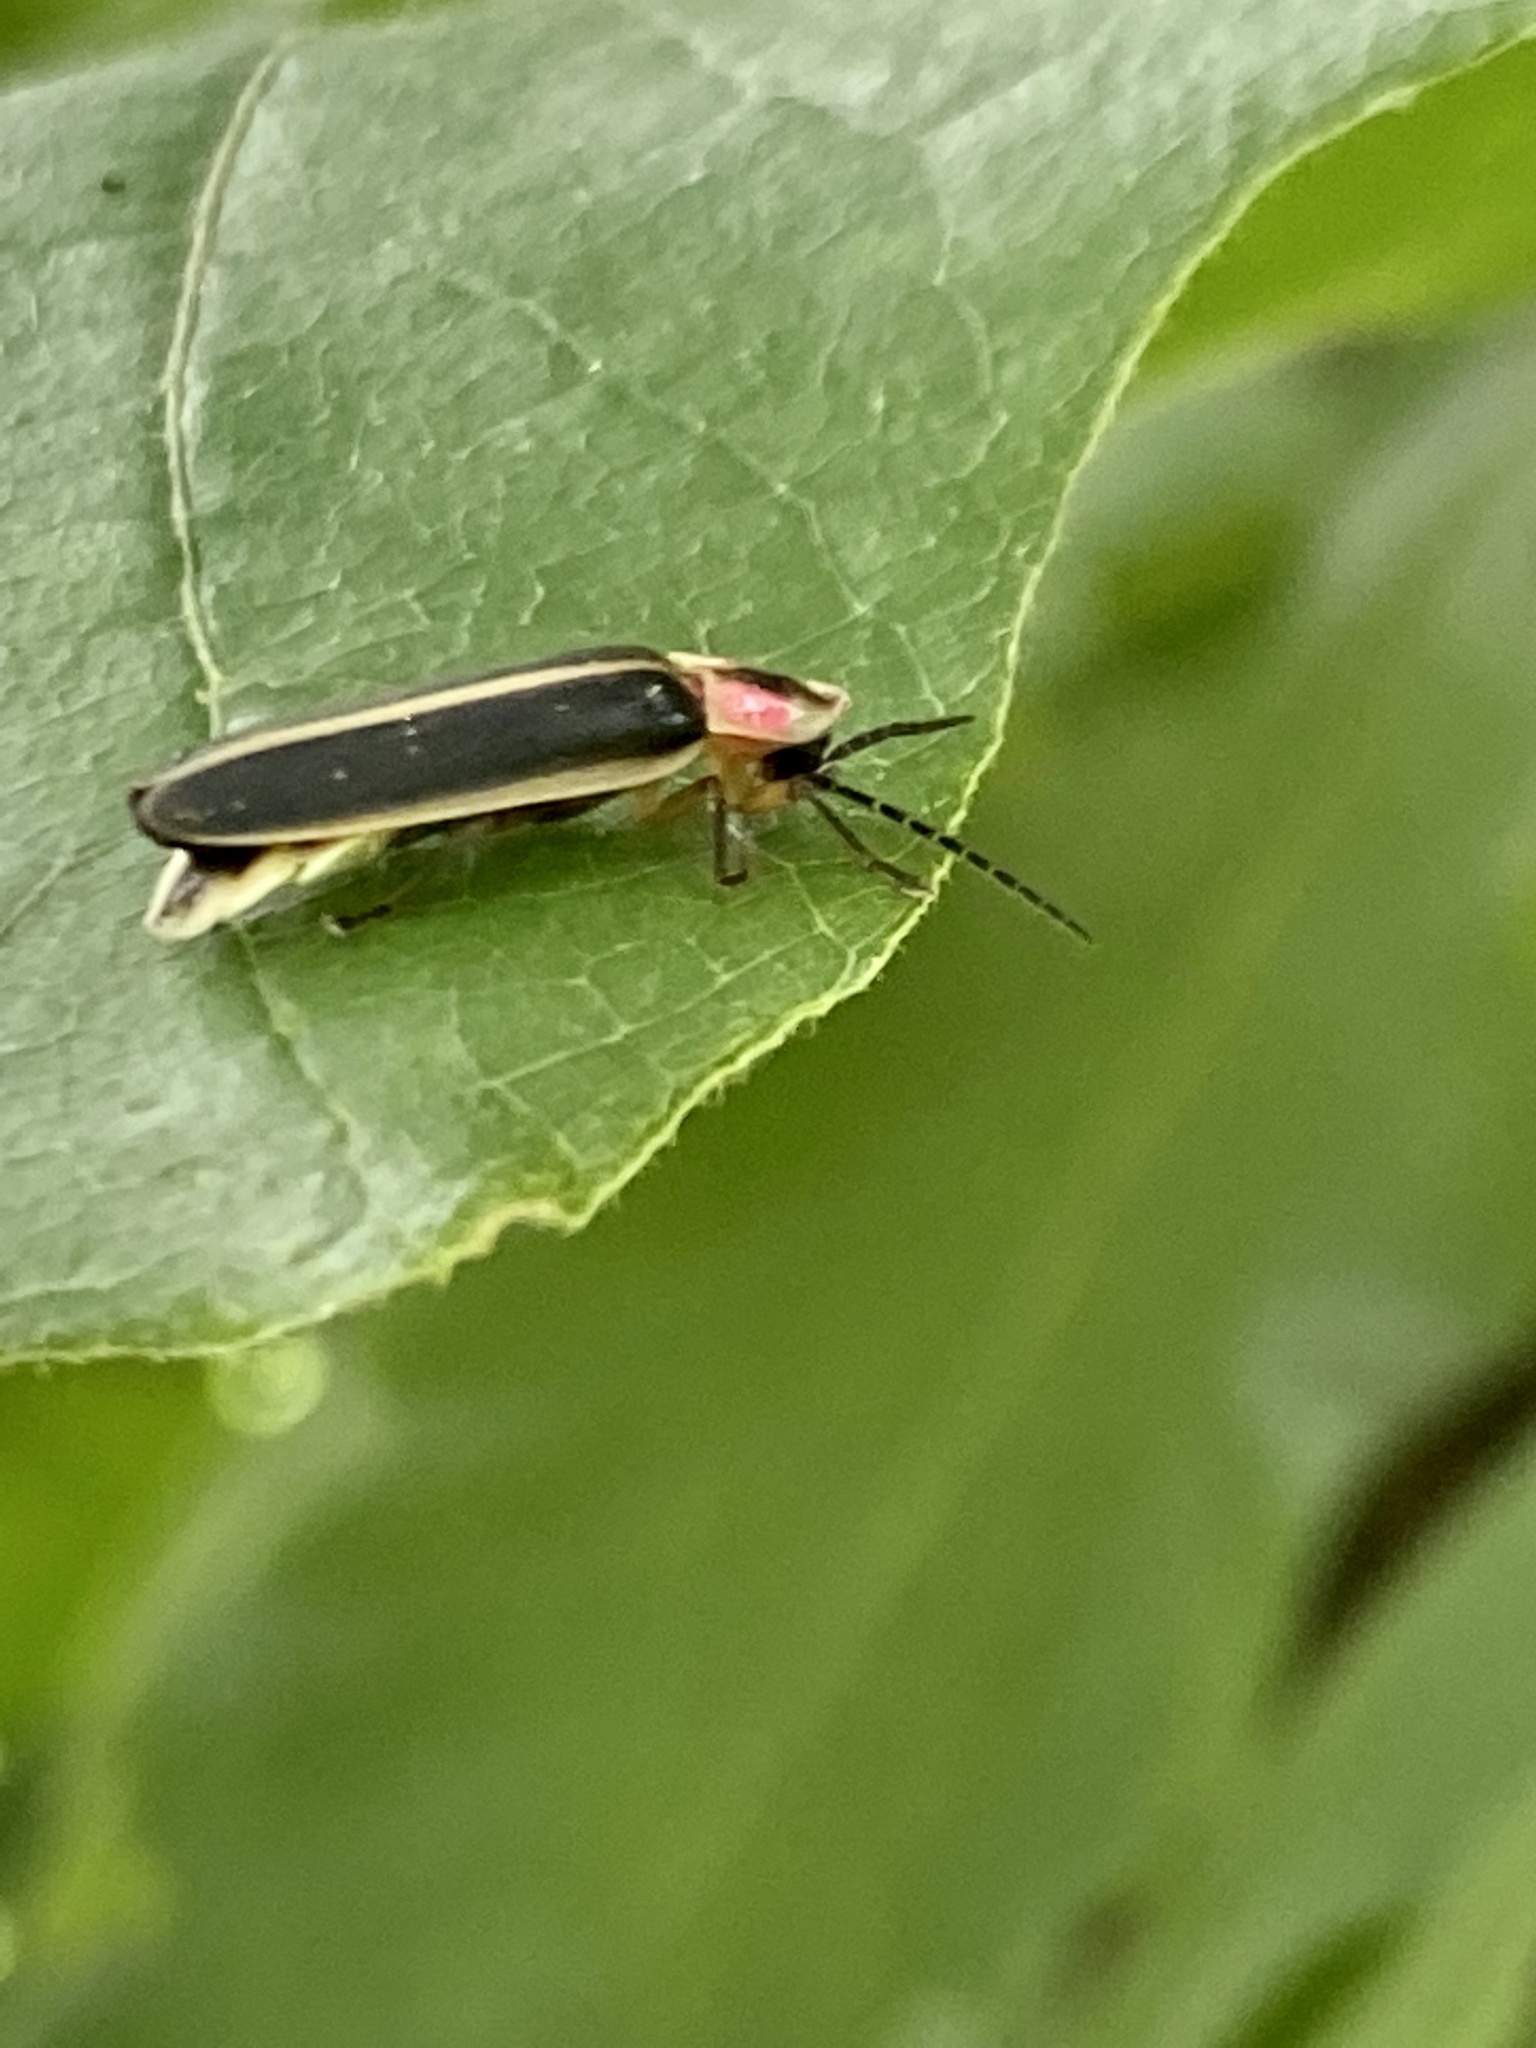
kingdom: Animalia
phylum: Arthropoda
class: Insecta
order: Coleoptera
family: Lampyridae
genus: Photinus
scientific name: Photinus pyralis
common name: Big dipper firefly
